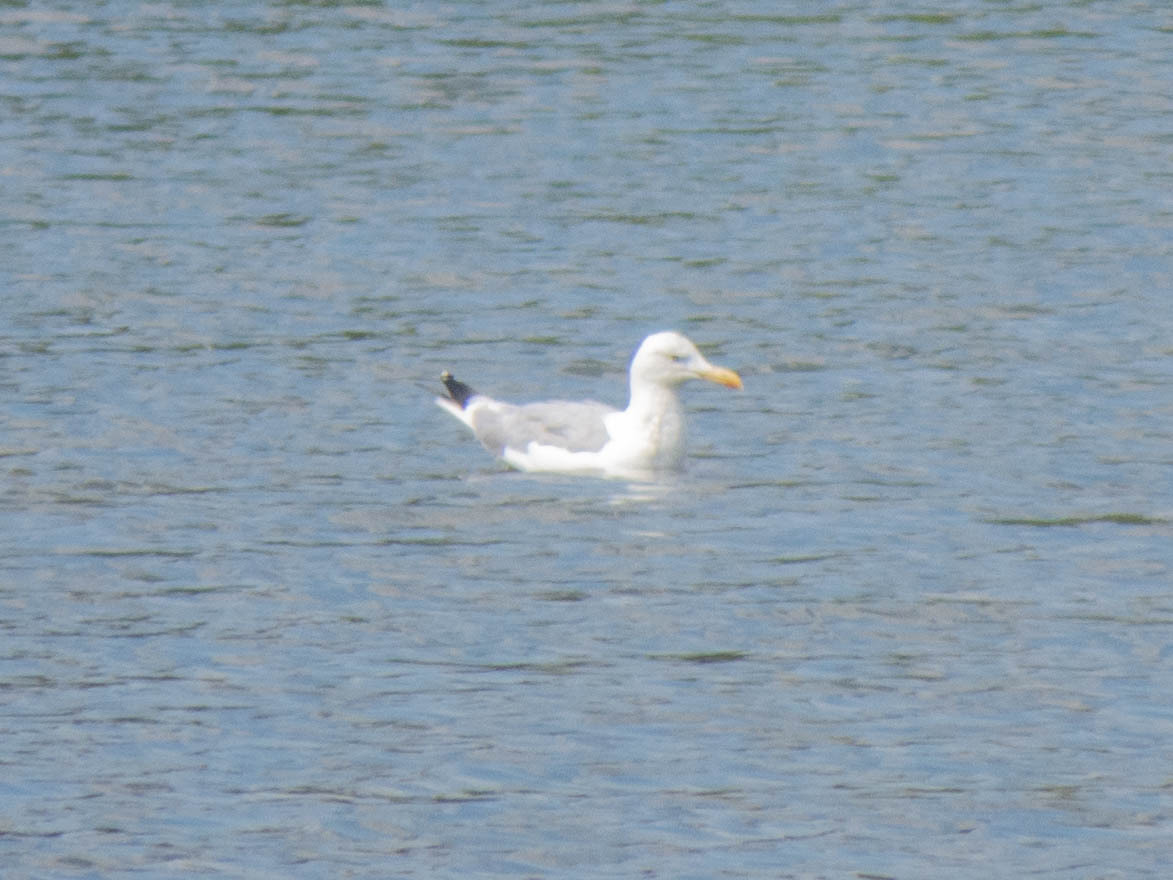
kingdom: Animalia
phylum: Chordata
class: Aves
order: Charadriiformes
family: Laridae
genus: Larus
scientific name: Larus argentatus
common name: Herring gull
